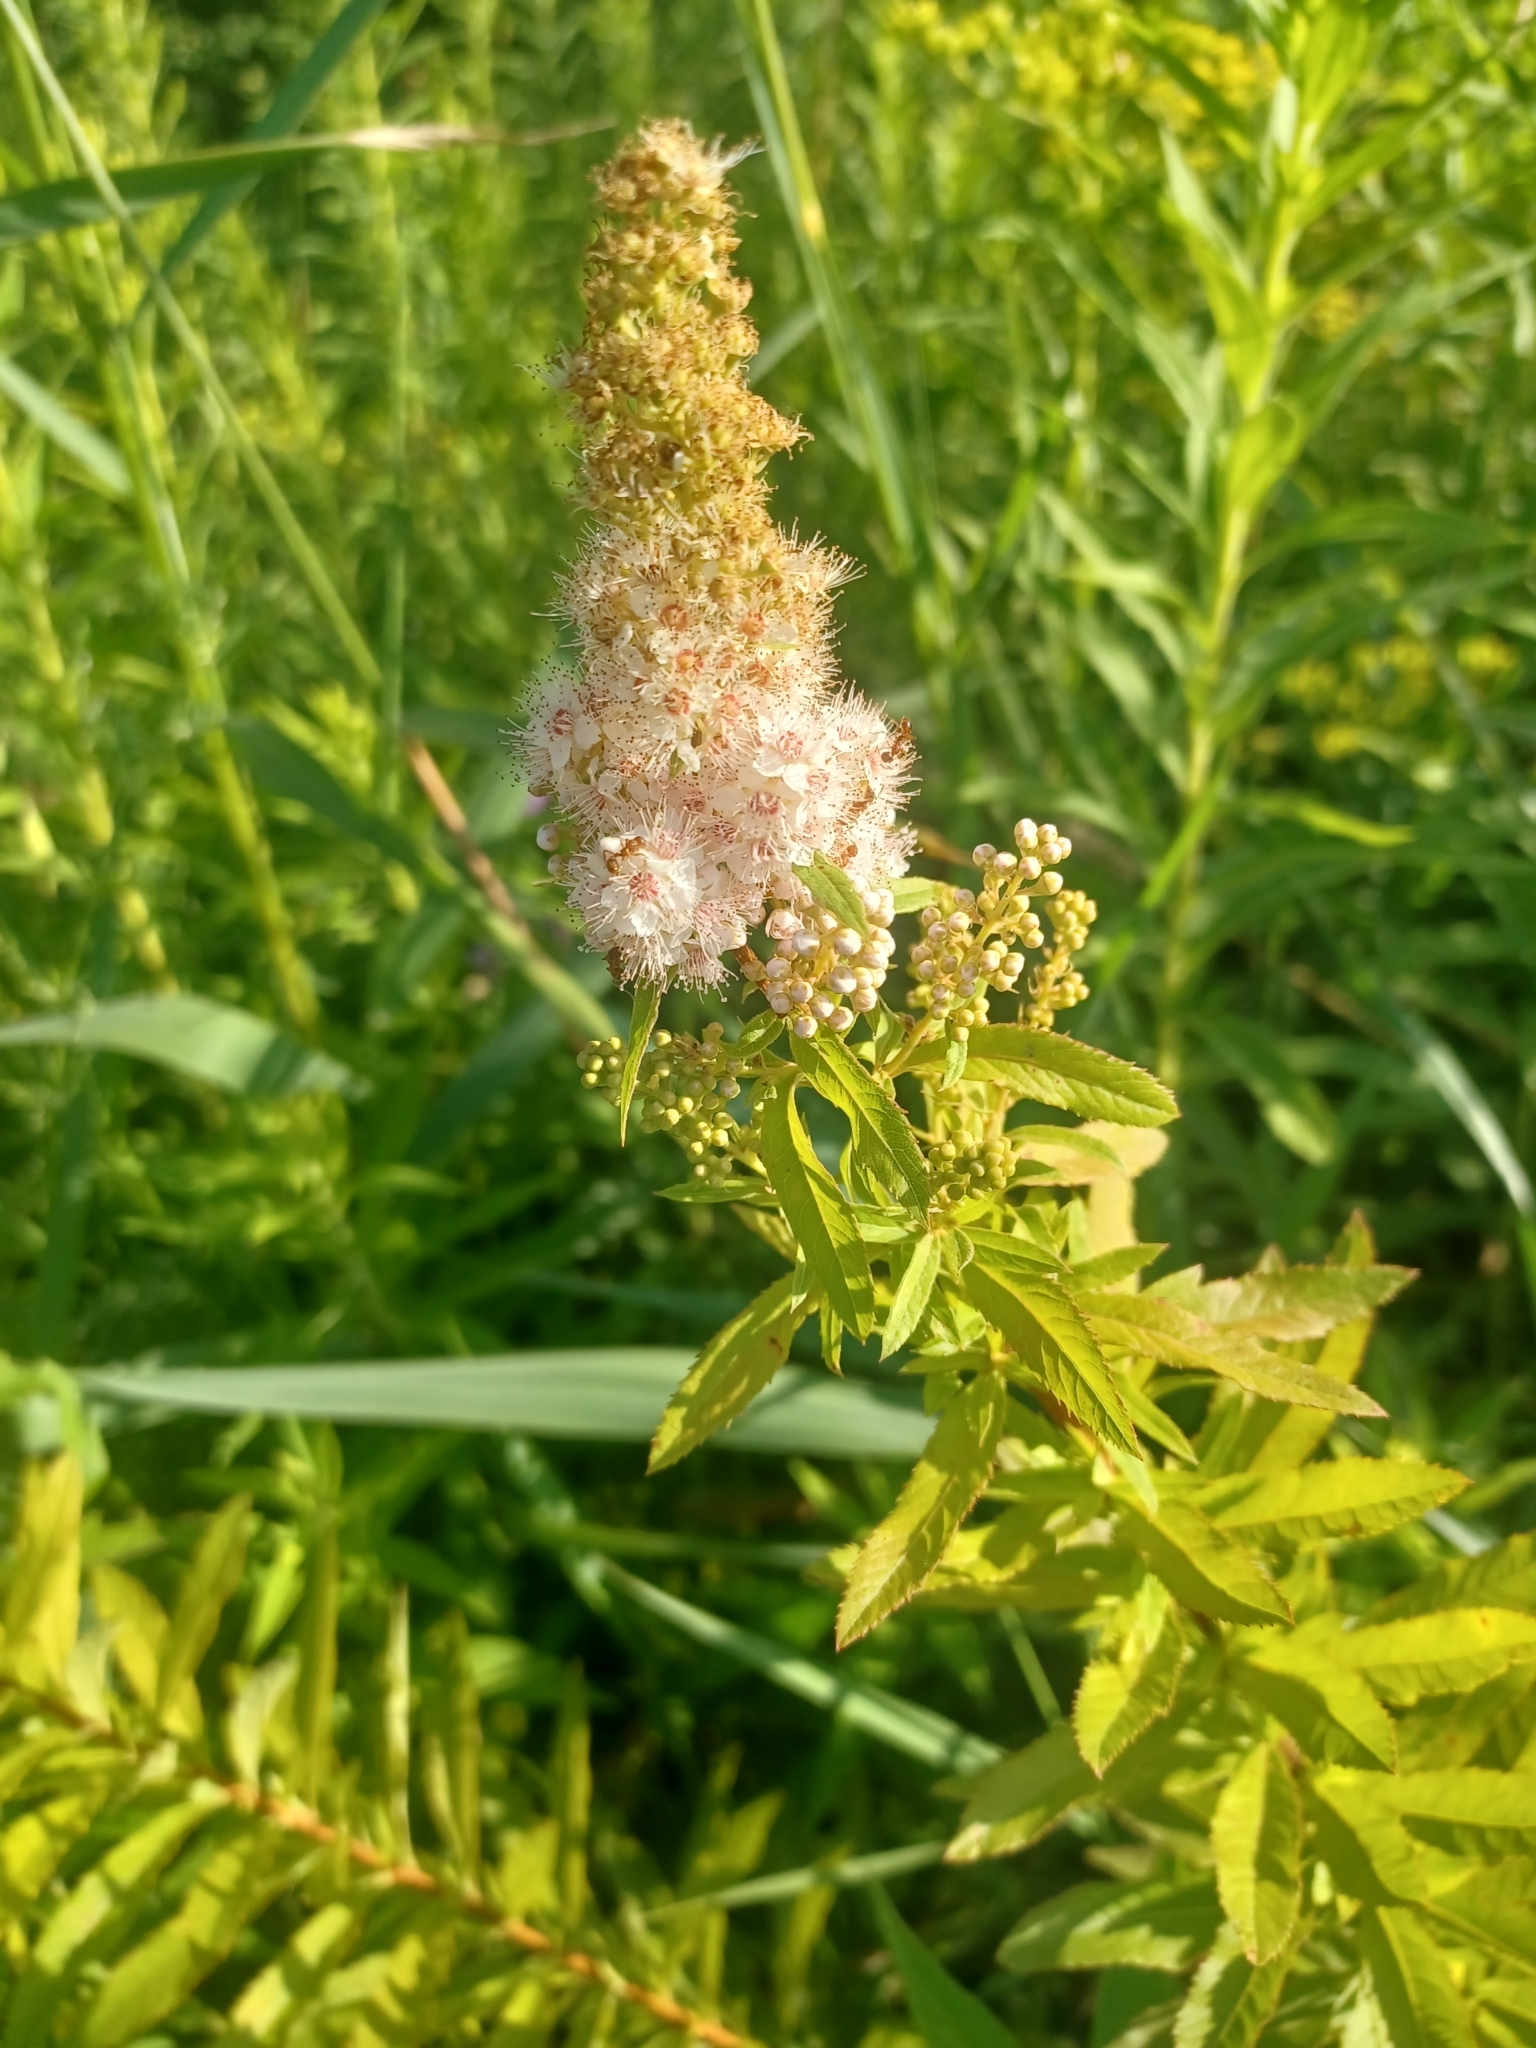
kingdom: Plantae
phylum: Tracheophyta
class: Magnoliopsida
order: Rosales
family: Rosaceae
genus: Spiraea
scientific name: Spiraea alba
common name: Pale bridewort
